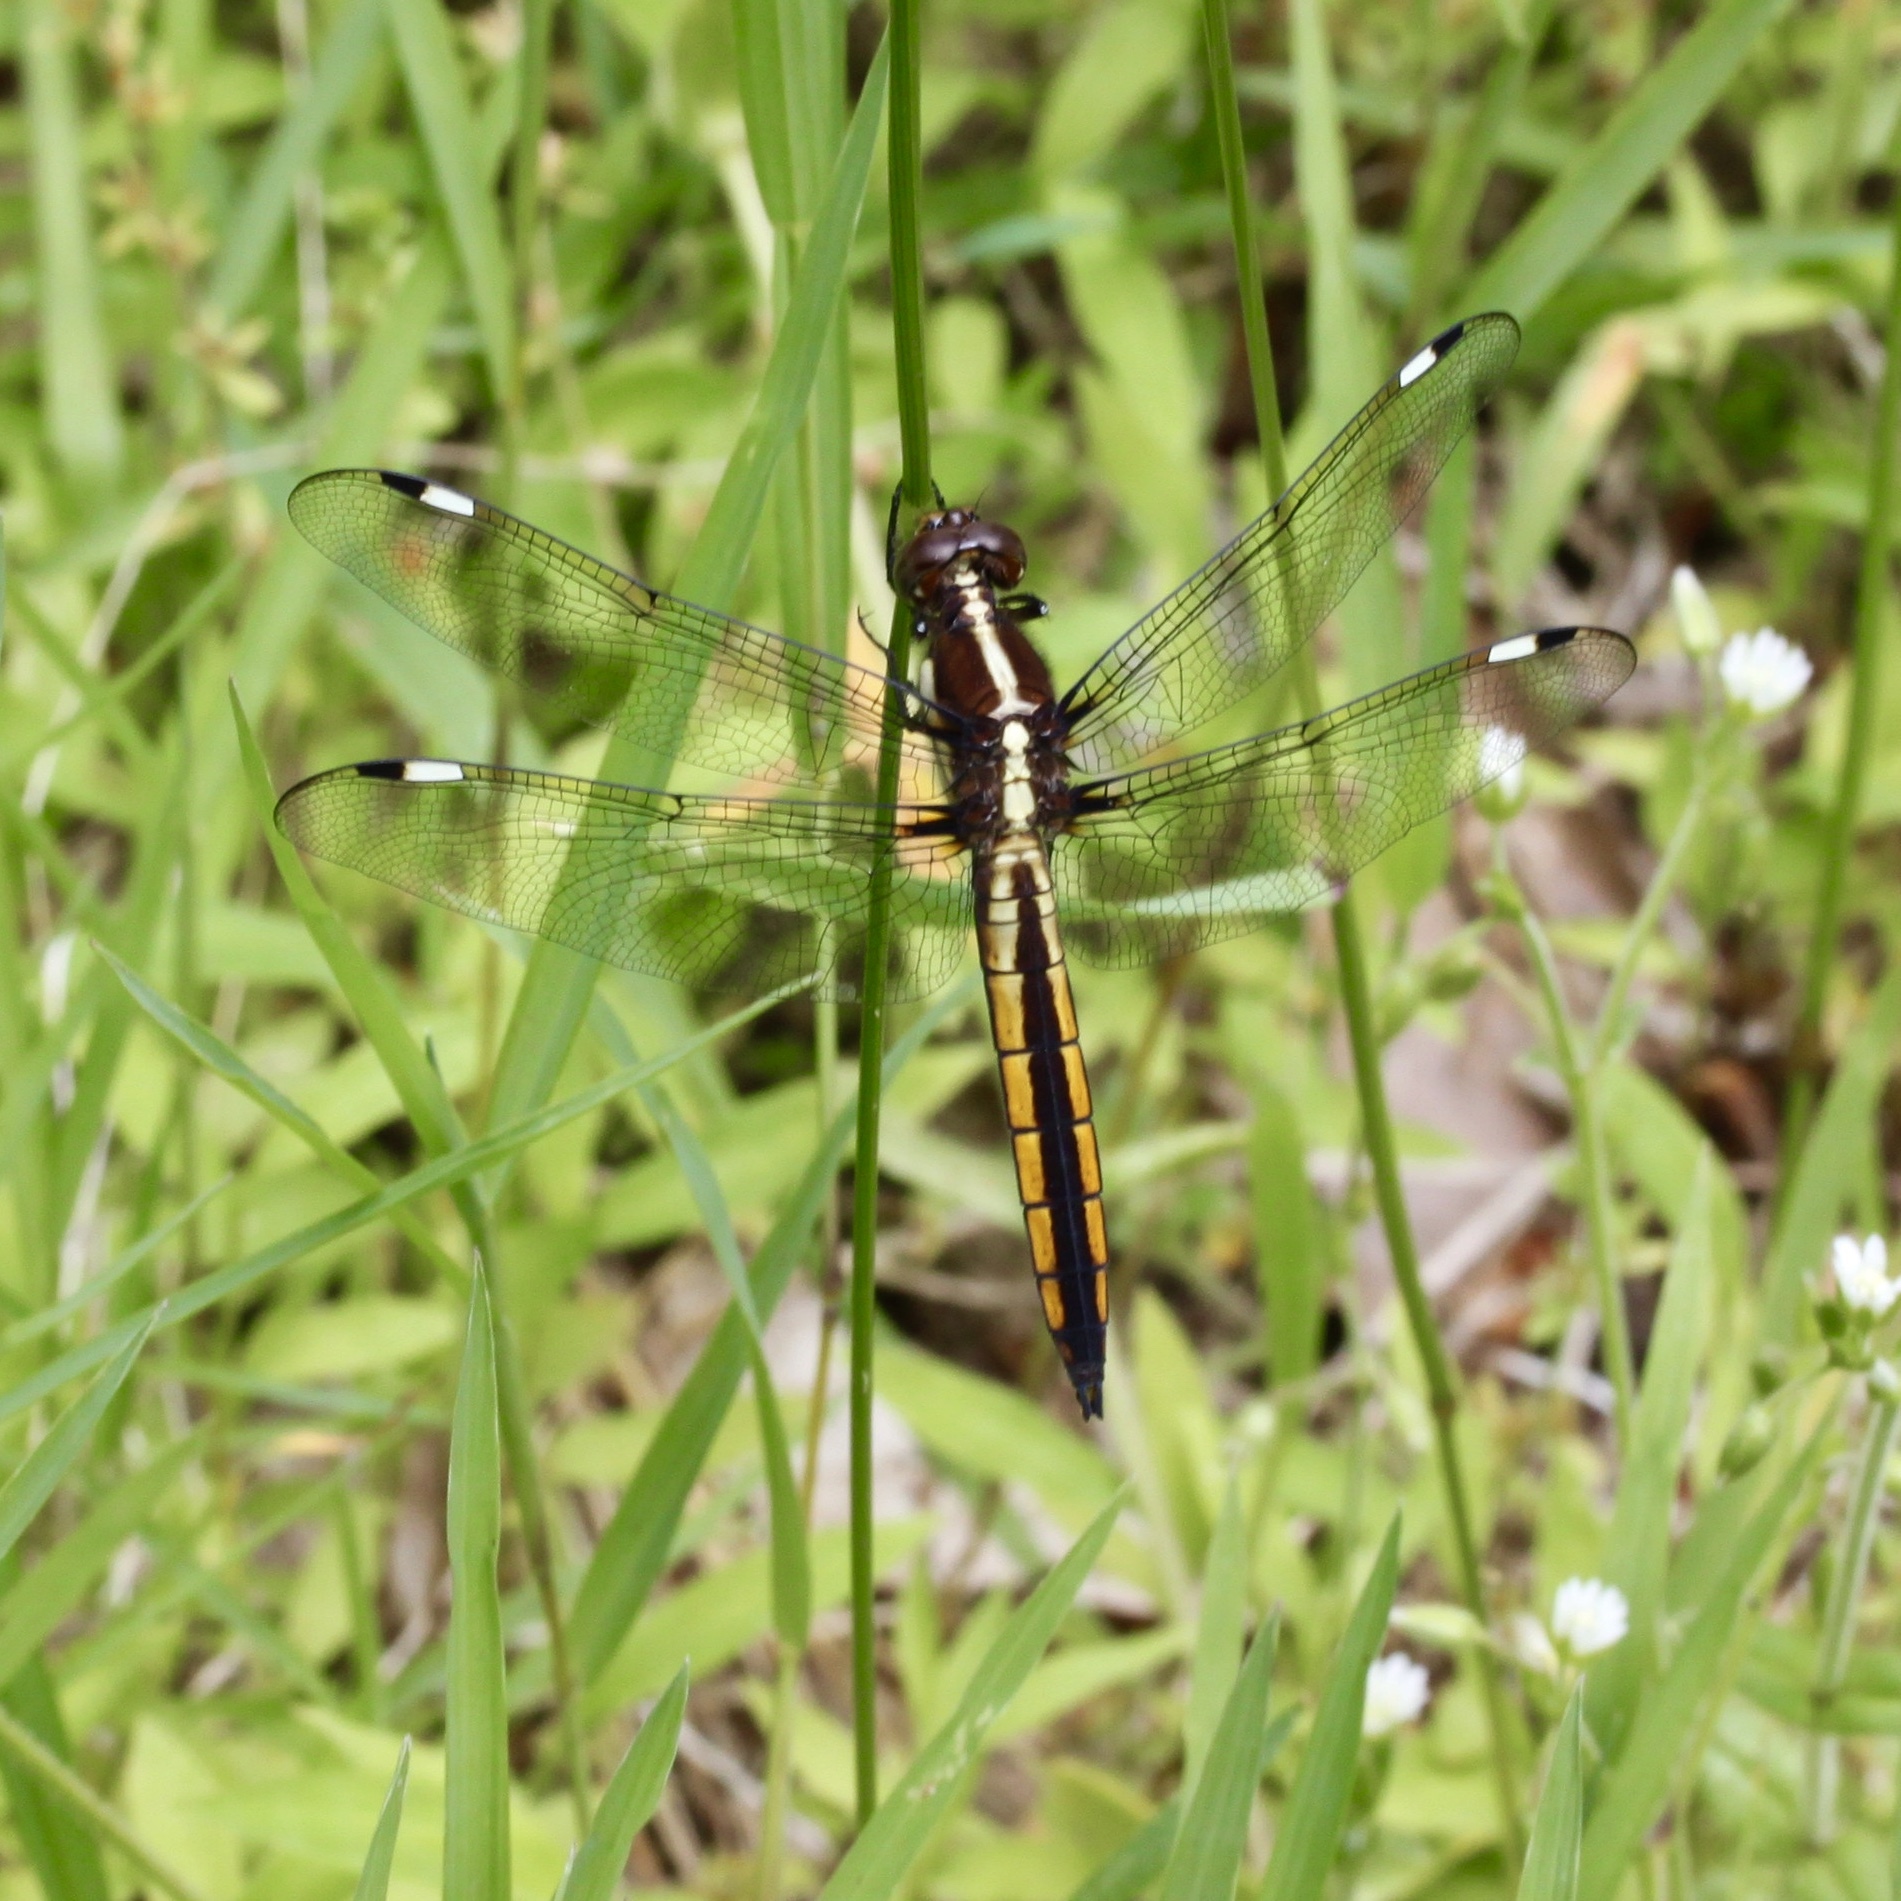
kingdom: Animalia
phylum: Arthropoda
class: Insecta
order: Odonata
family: Libellulidae
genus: Libellula
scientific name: Libellula cyanea
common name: Spangled skimmer
